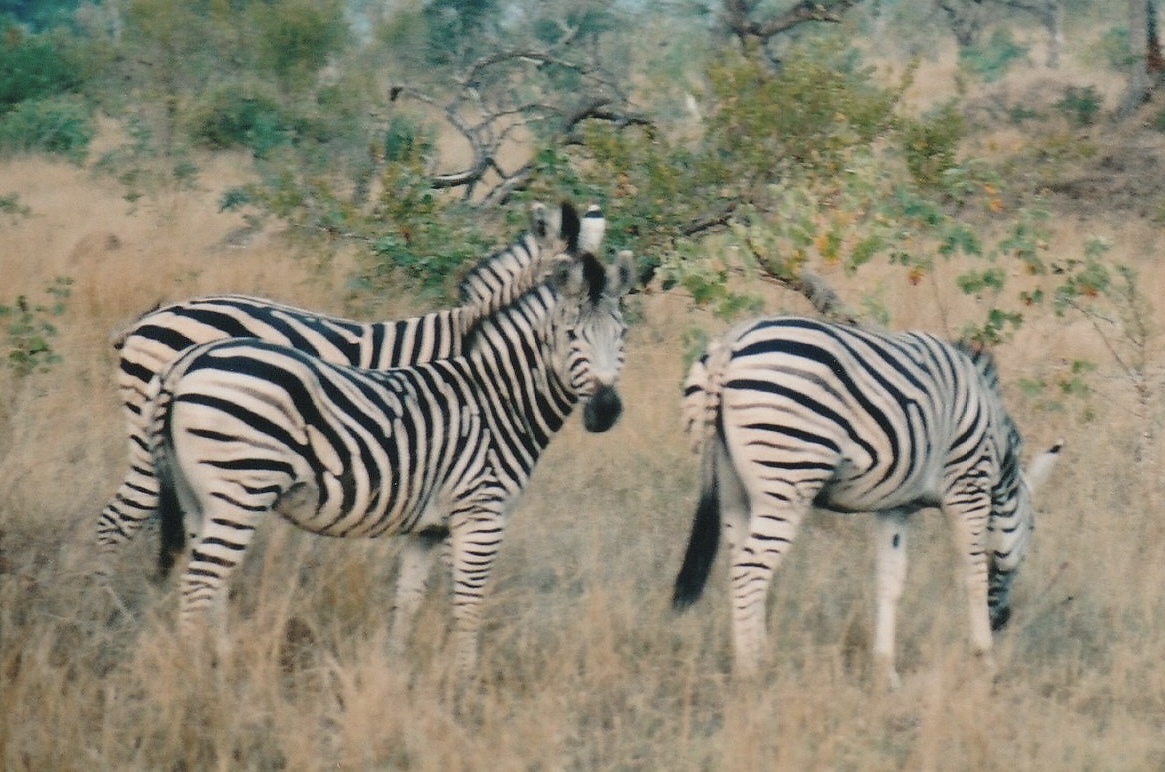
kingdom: Animalia
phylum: Chordata
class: Mammalia
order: Perissodactyla
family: Equidae
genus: Equus
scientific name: Equus quagga
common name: Plains zebra
